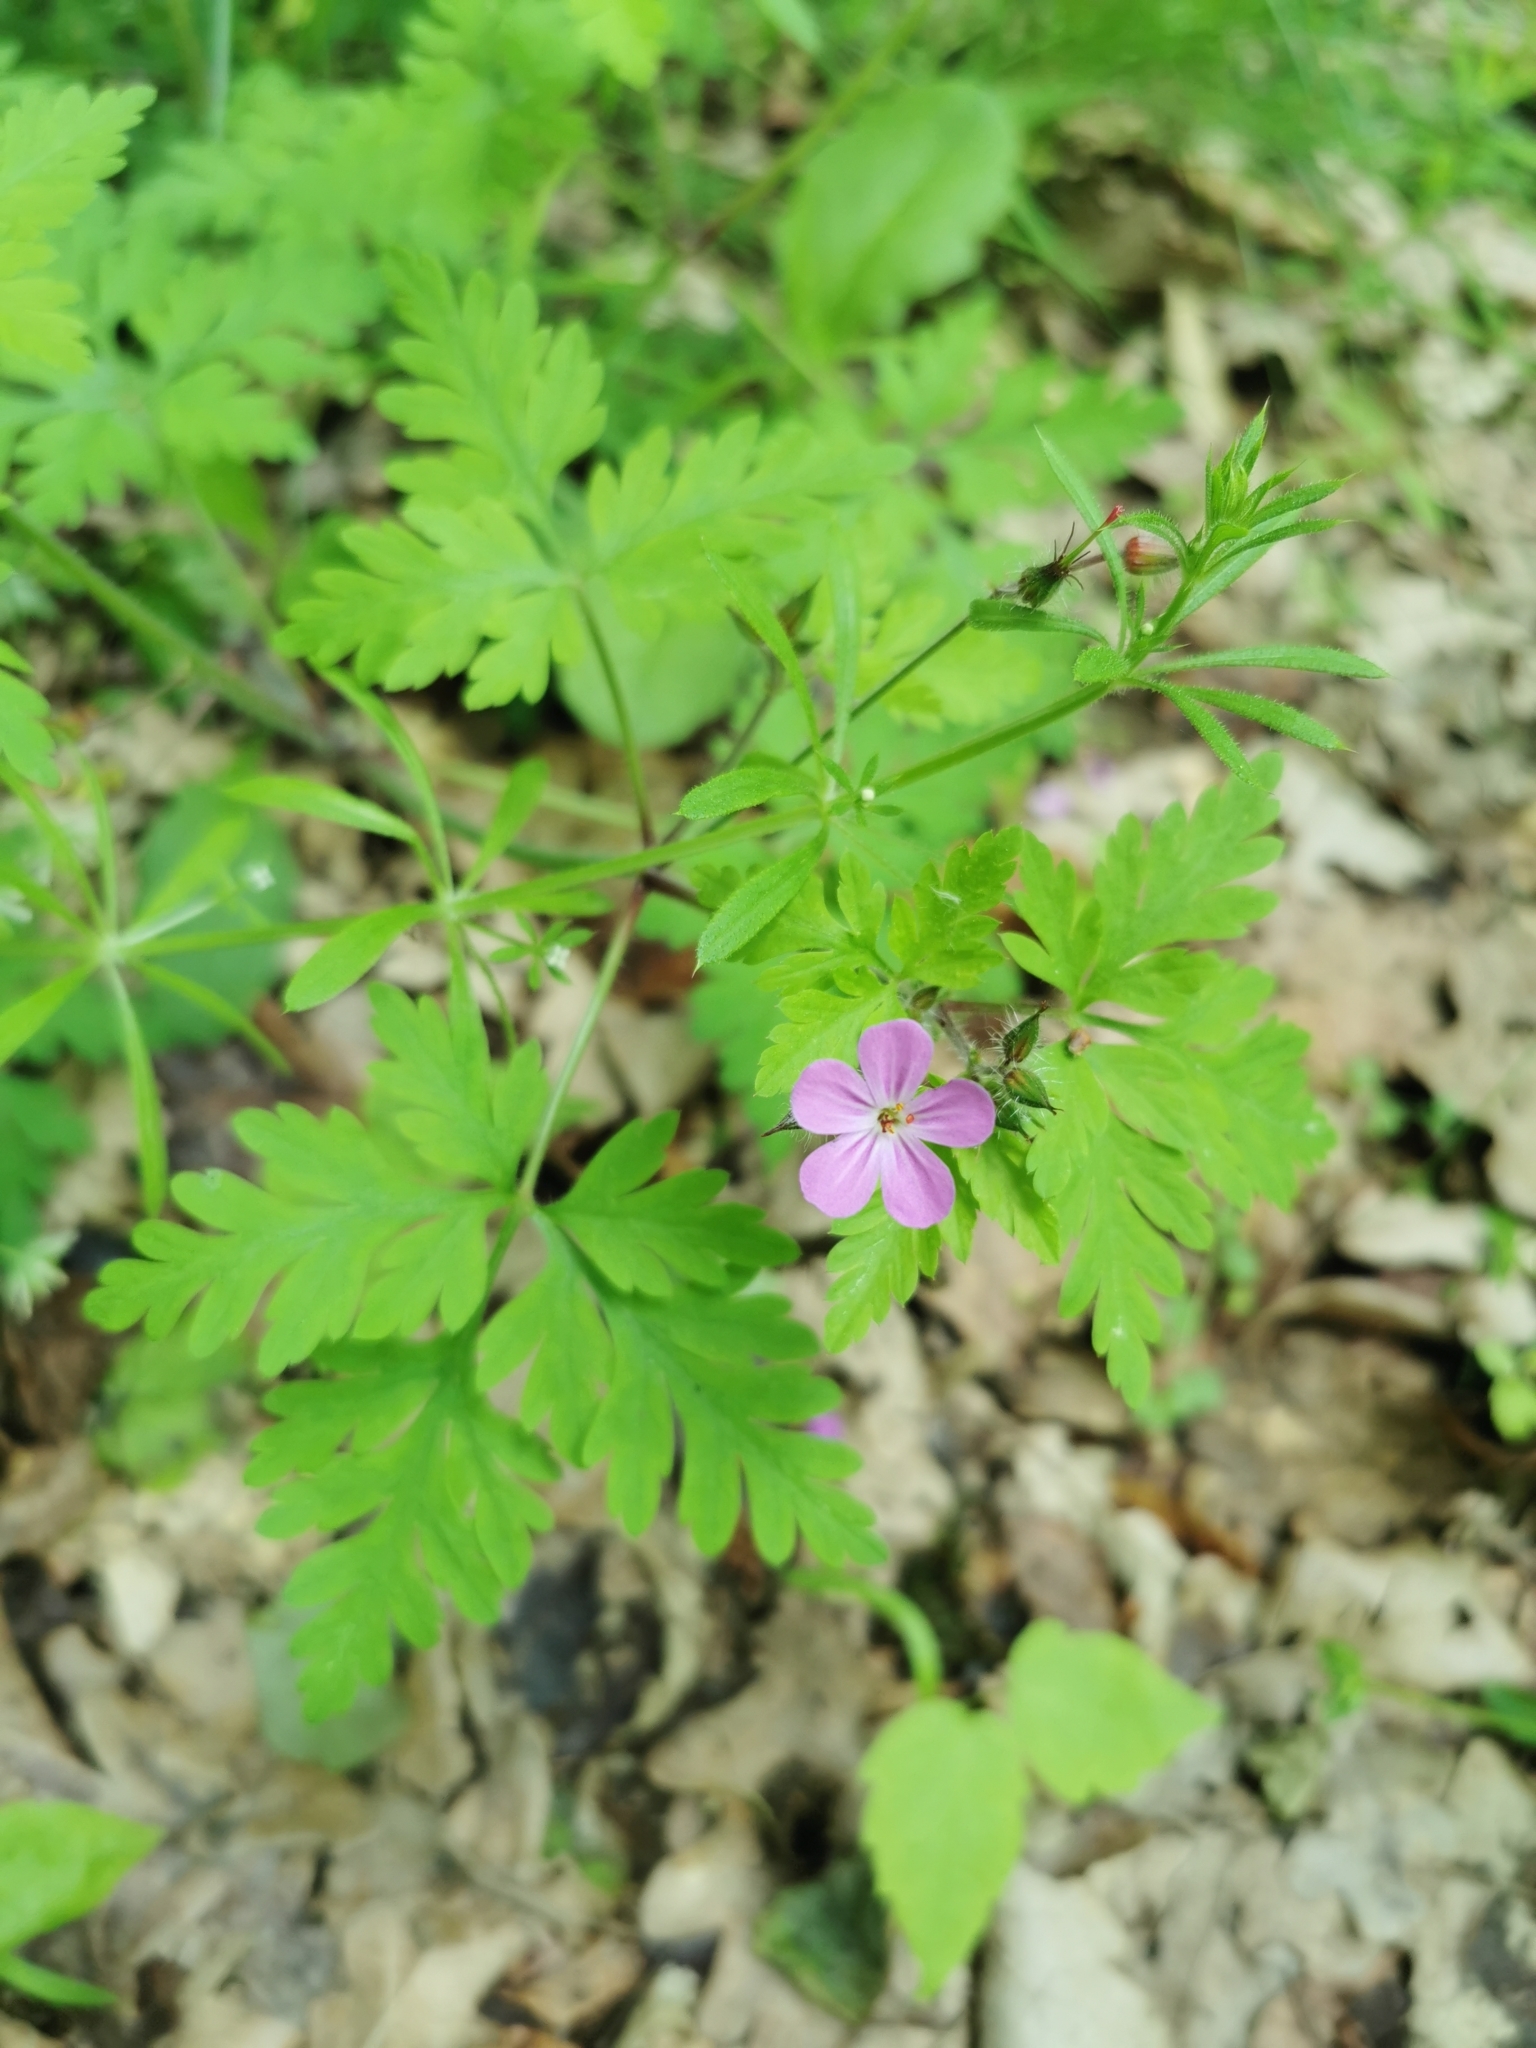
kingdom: Plantae
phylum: Tracheophyta
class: Magnoliopsida
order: Geraniales
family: Geraniaceae
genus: Geranium
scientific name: Geranium robertianum
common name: Herb-robert
